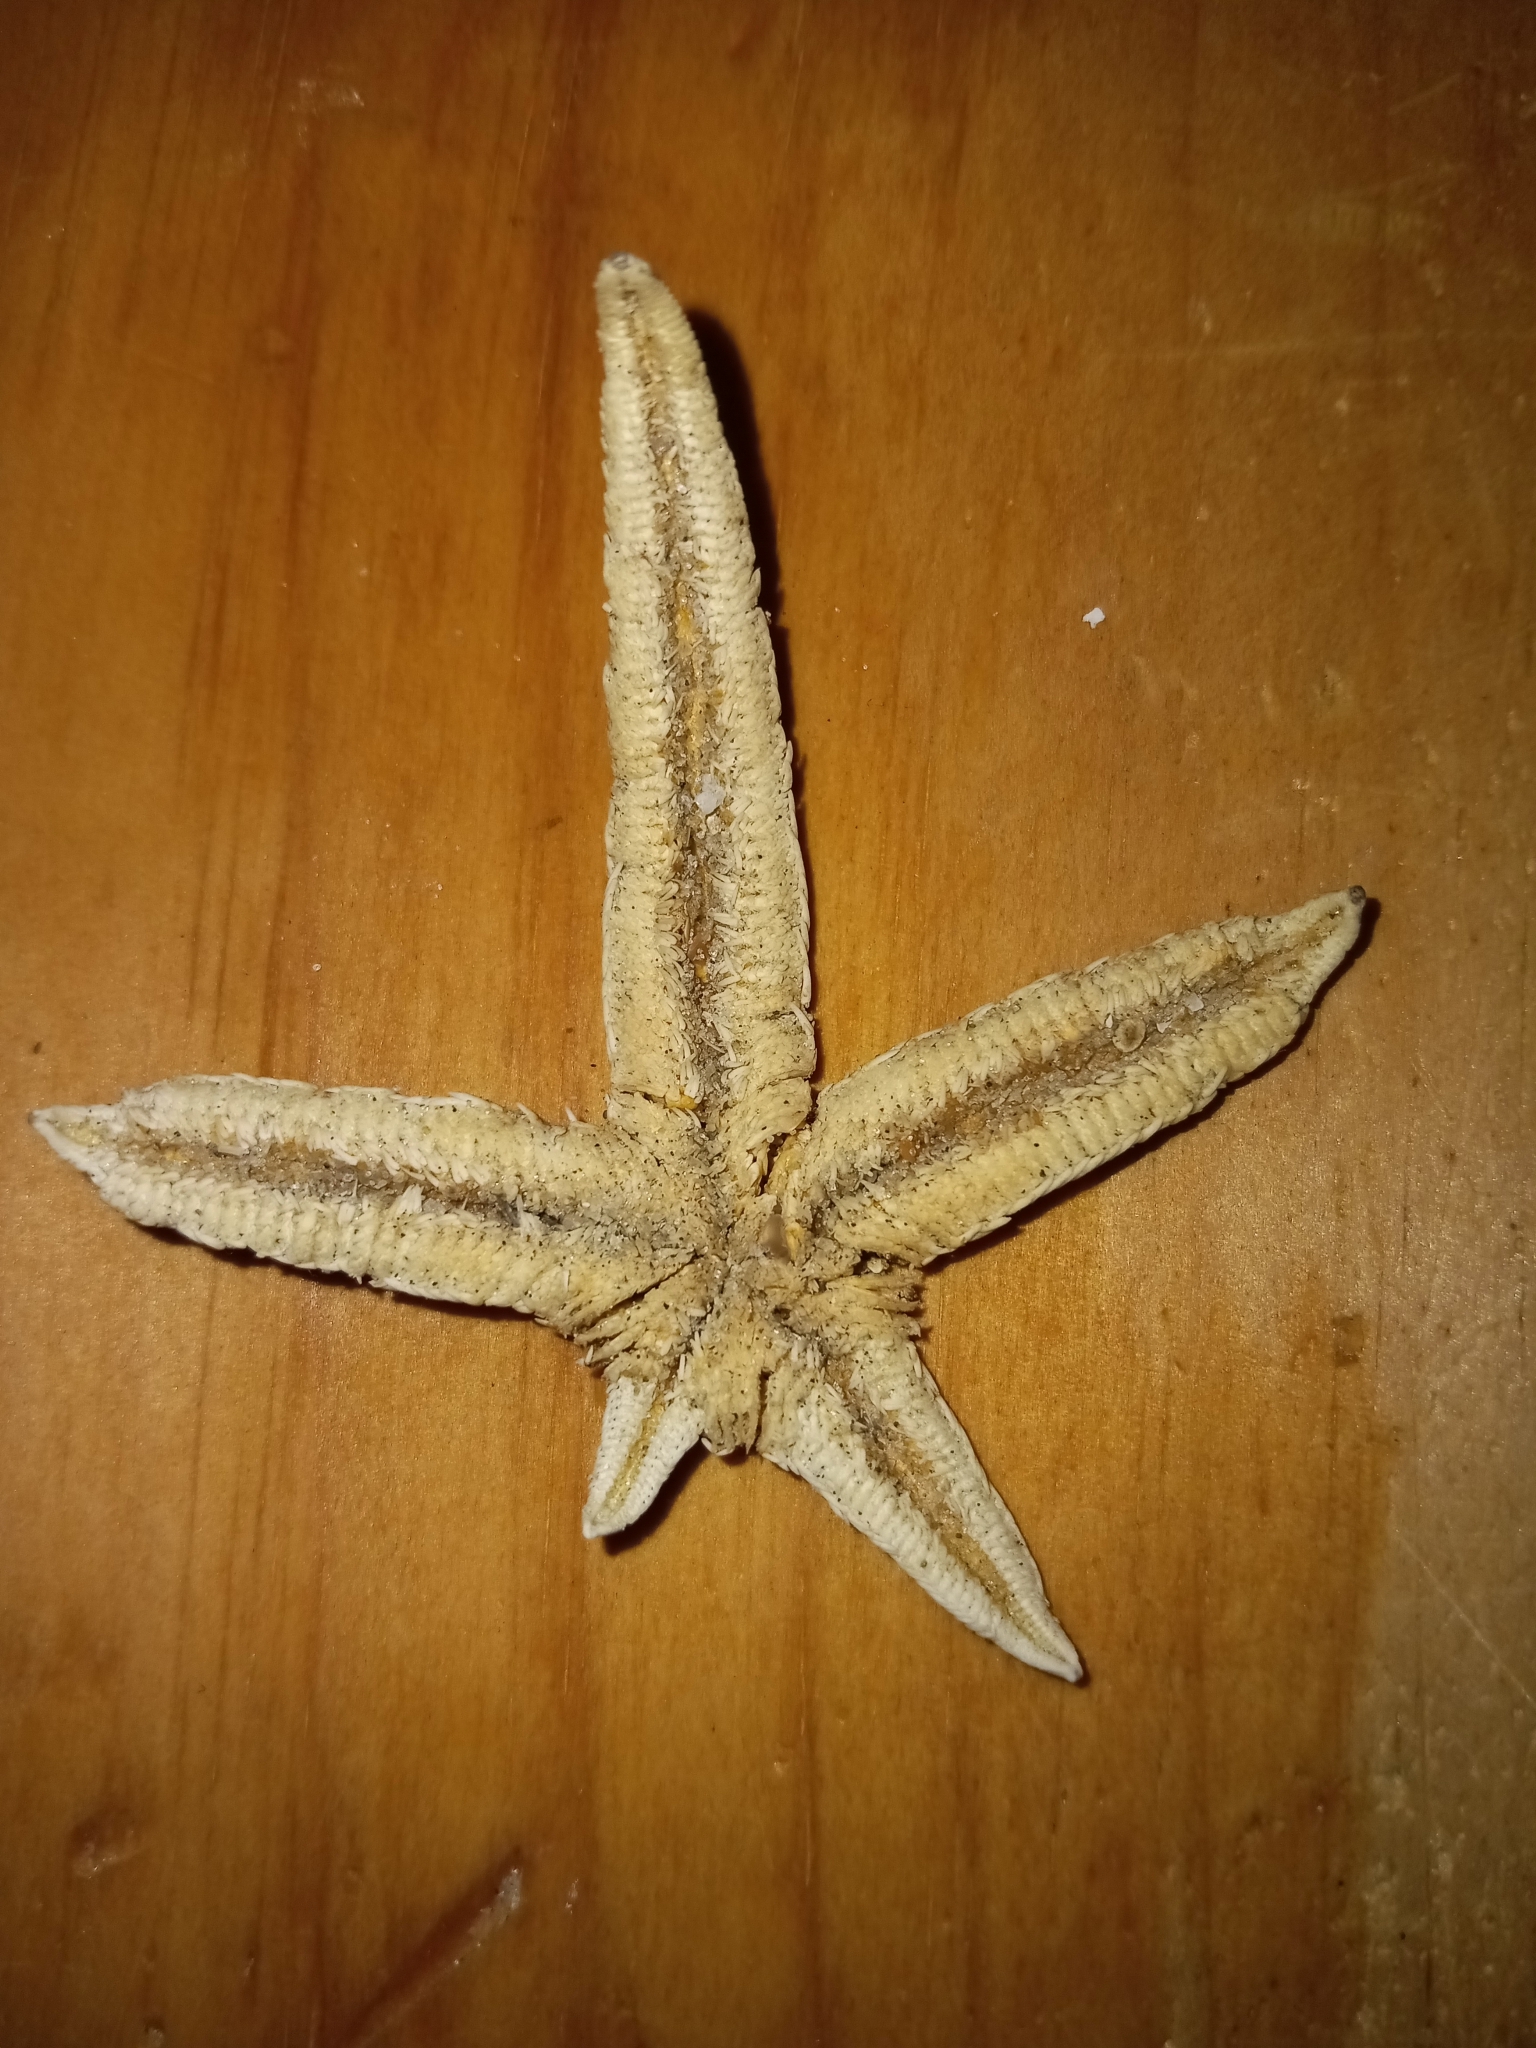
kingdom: Animalia
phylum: Echinodermata
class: Asteroidea
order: Paxillosida
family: Luidiidae
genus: Luidia
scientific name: Luidia clathrata
